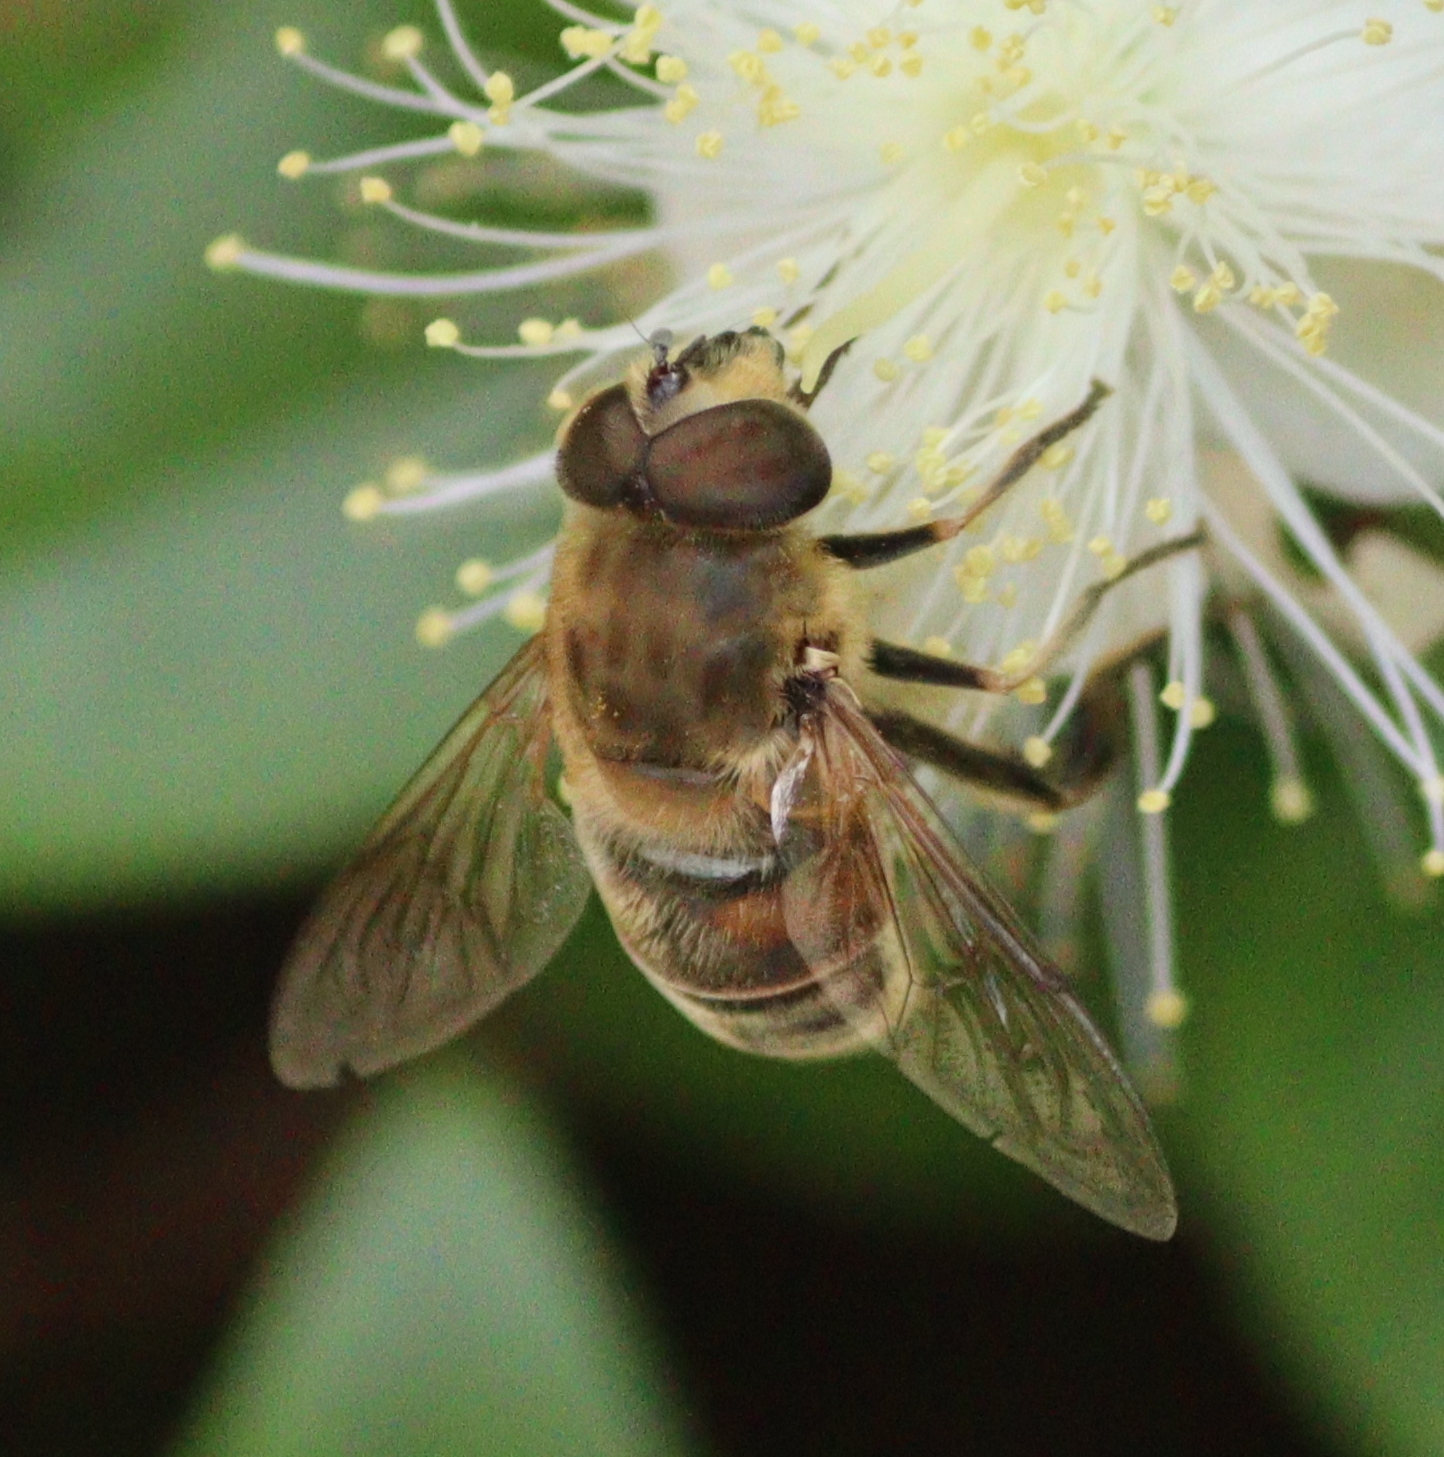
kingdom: Animalia
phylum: Arthropoda
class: Insecta
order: Diptera
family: Syrphidae
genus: Eristalis
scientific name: Eristalis tenax
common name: Drone fly
